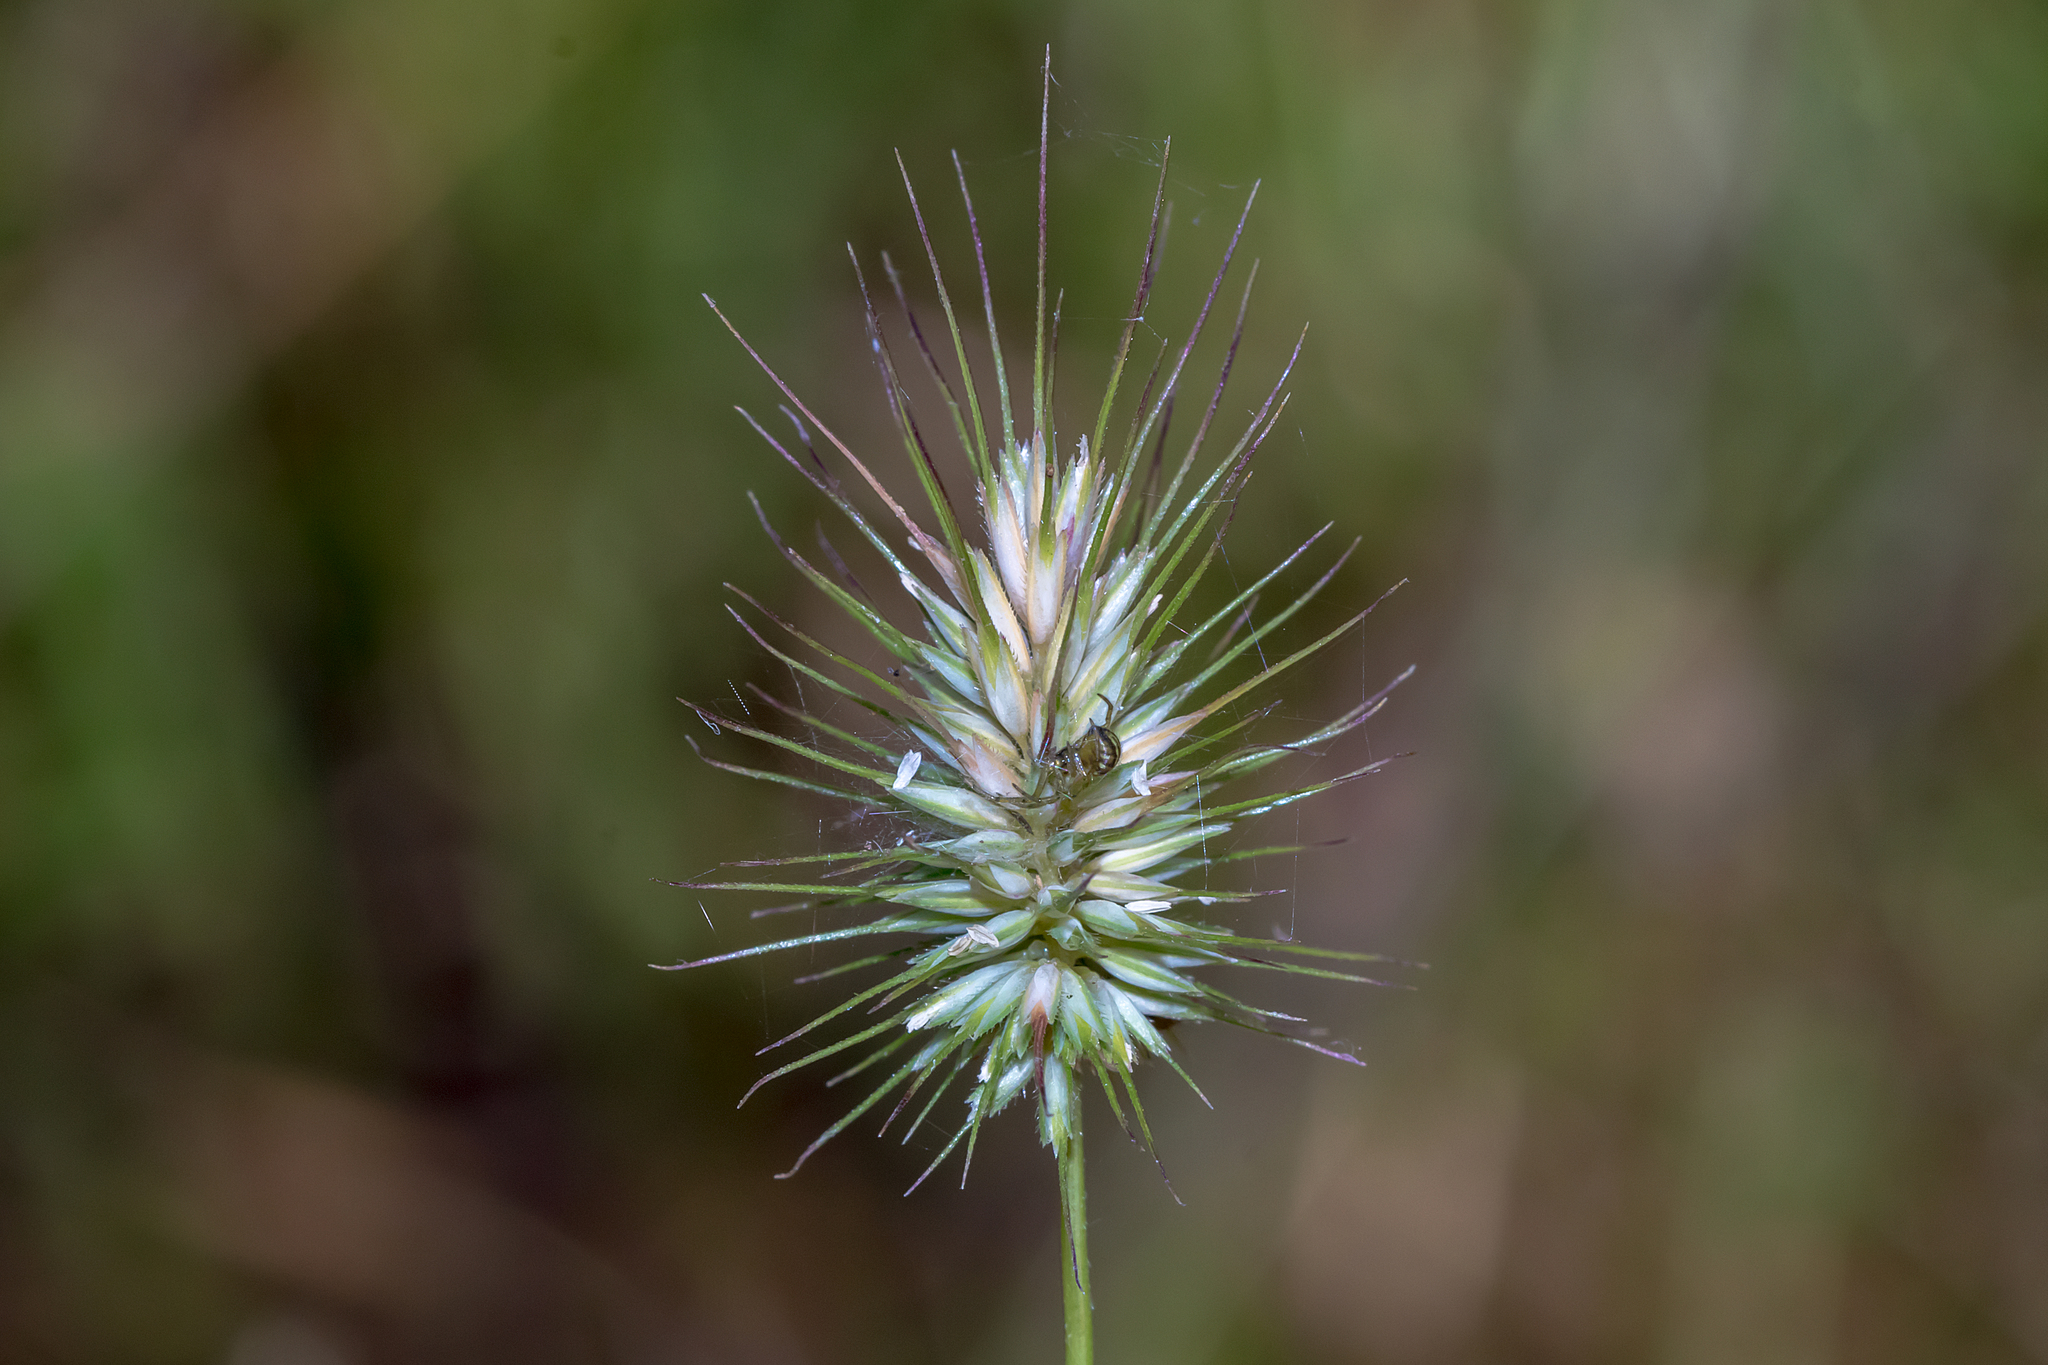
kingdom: Plantae
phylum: Tracheophyta
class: Liliopsida
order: Poales
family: Poaceae
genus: Echinopogon
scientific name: Echinopogon ovatus
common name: Hedgehog-grass
